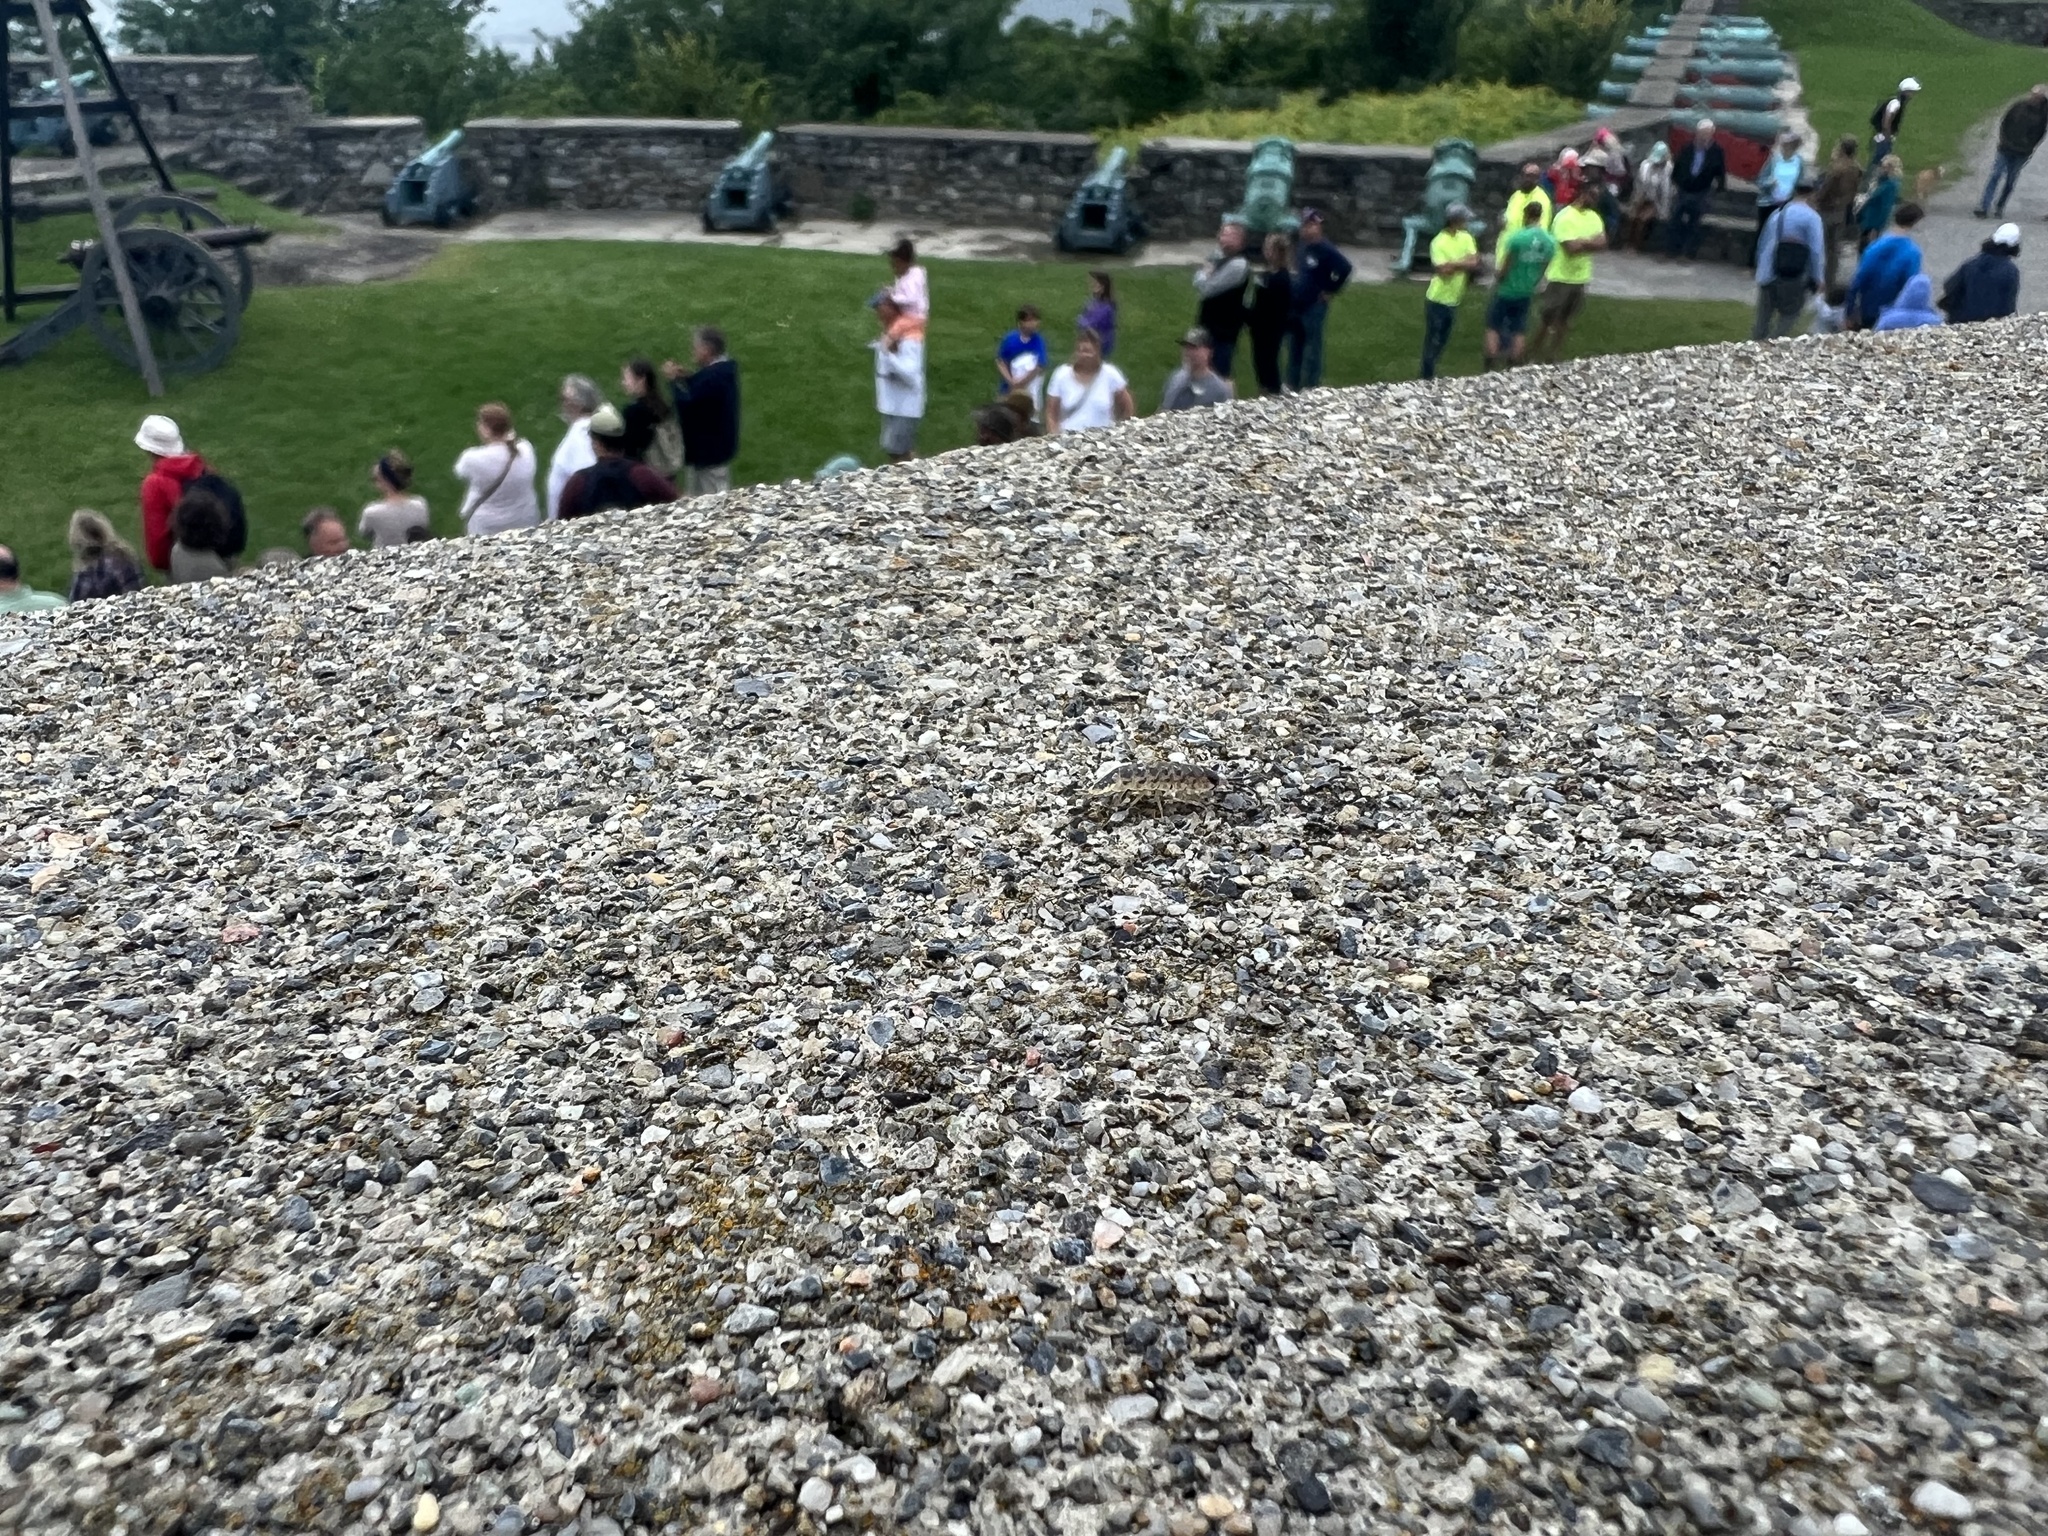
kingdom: Animalia
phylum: Arthropoda
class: Malacostraca
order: Isopoda
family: Porcellionidae
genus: Porcellio
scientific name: Porcellio spinicornis
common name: Painted woodlouse
